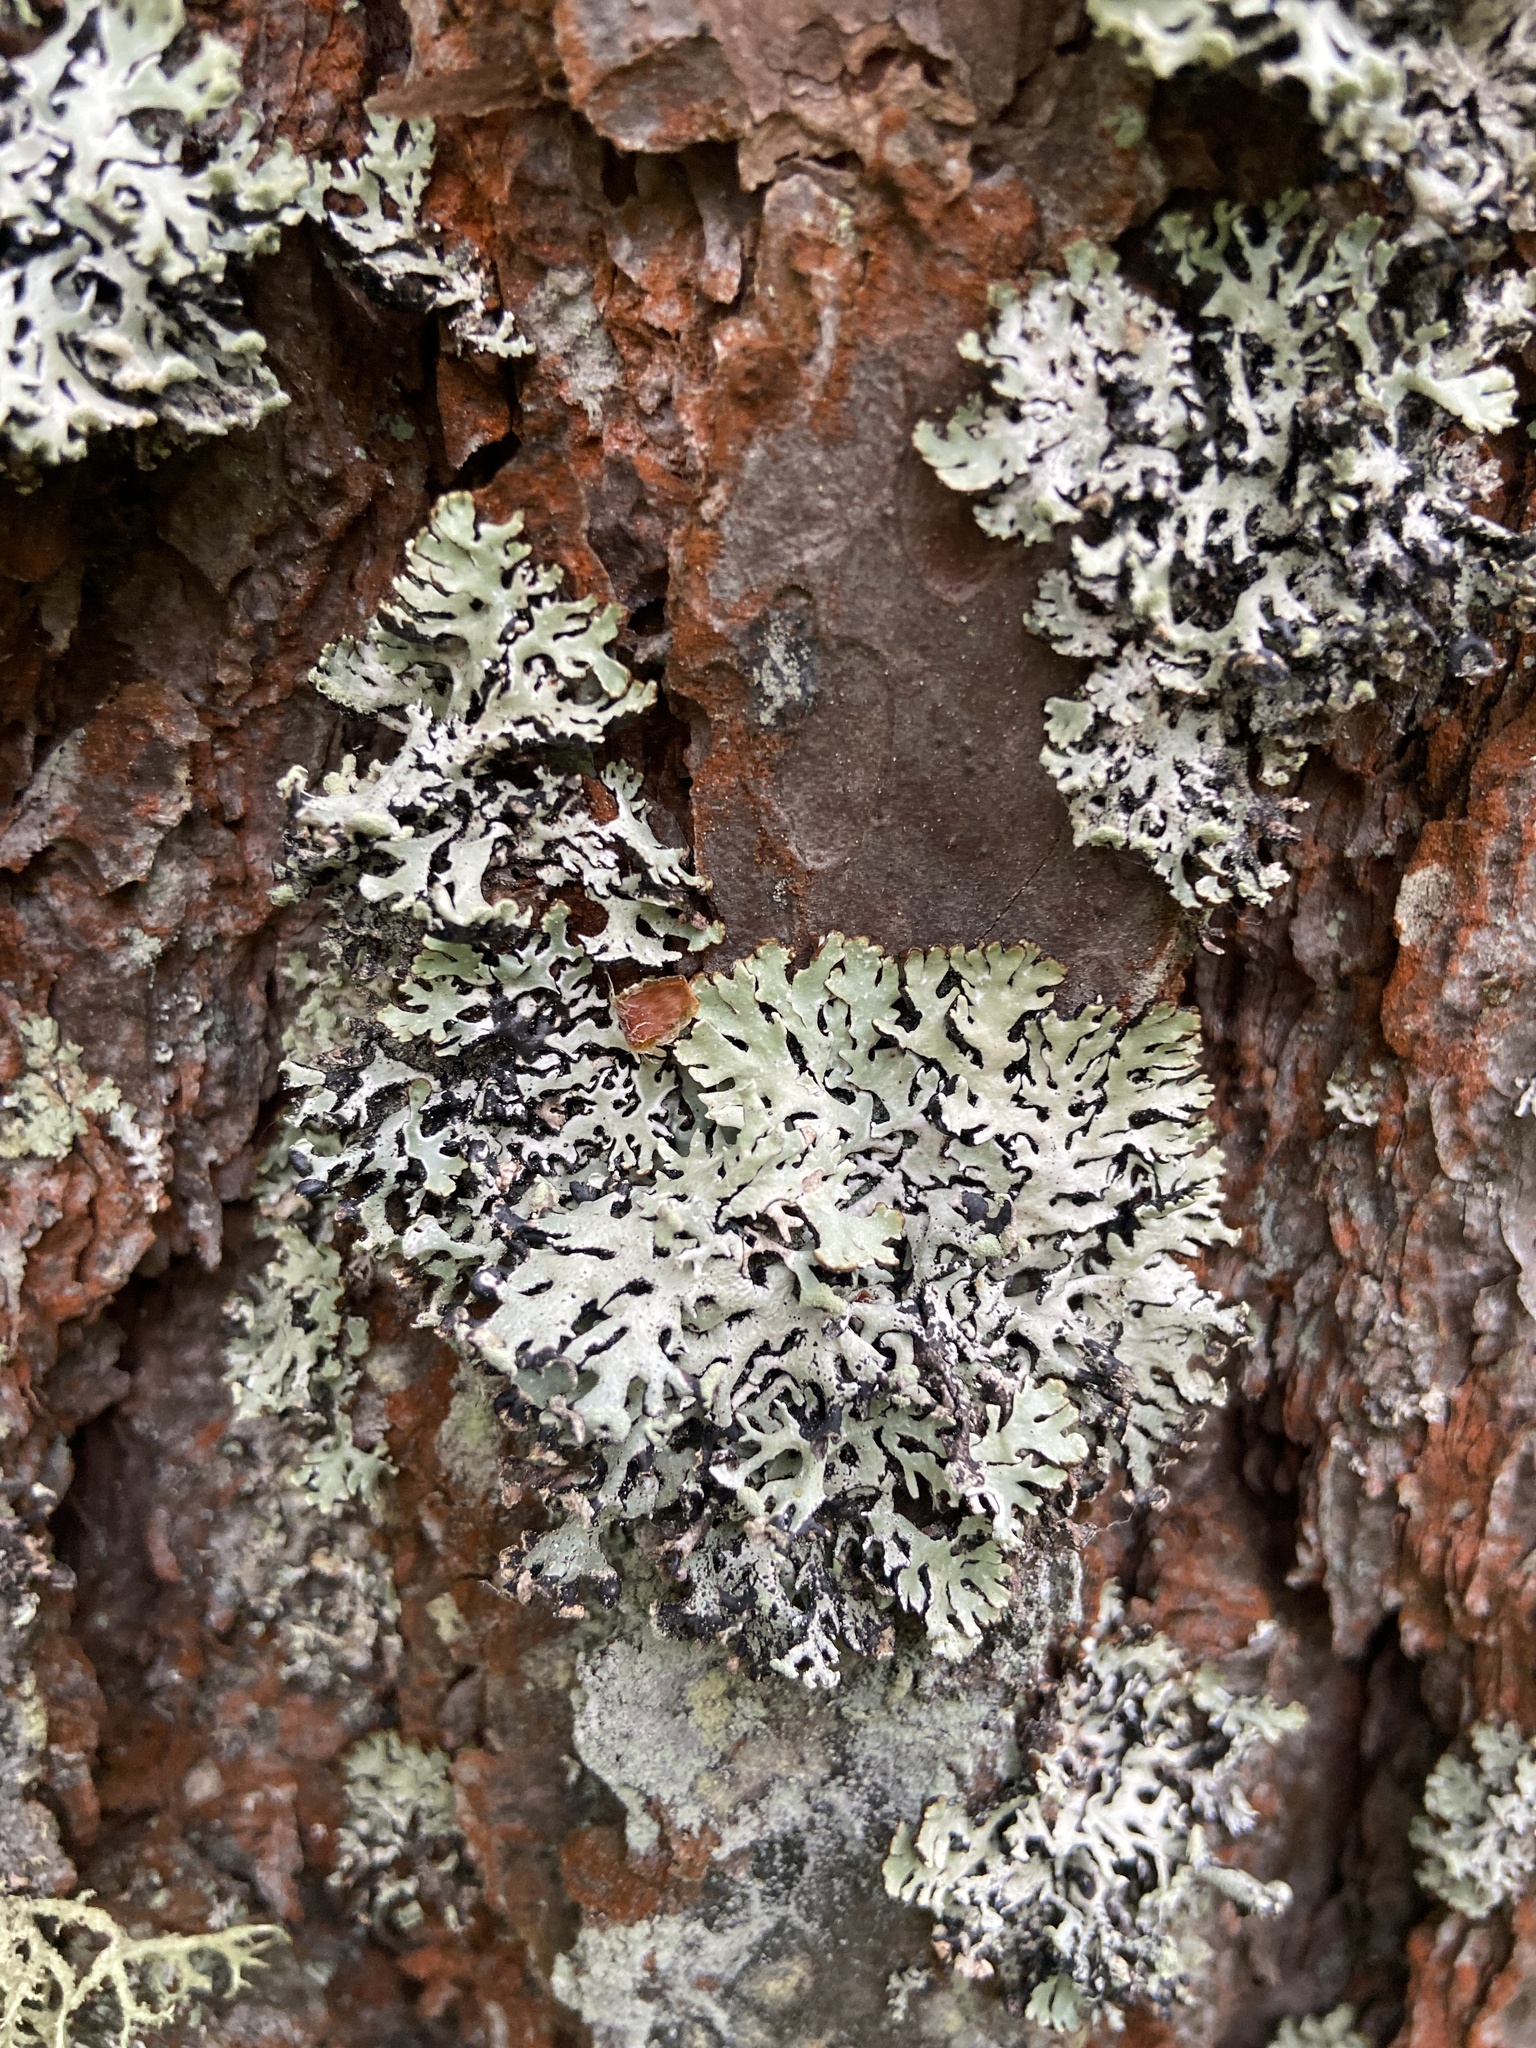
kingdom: Fungi
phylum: Ascomycota
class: Lecanoromycetes
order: Lecanorales
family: Parmeliaceae
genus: Hypogymnia
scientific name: Hypogymnia physodes
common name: Dark crottle
